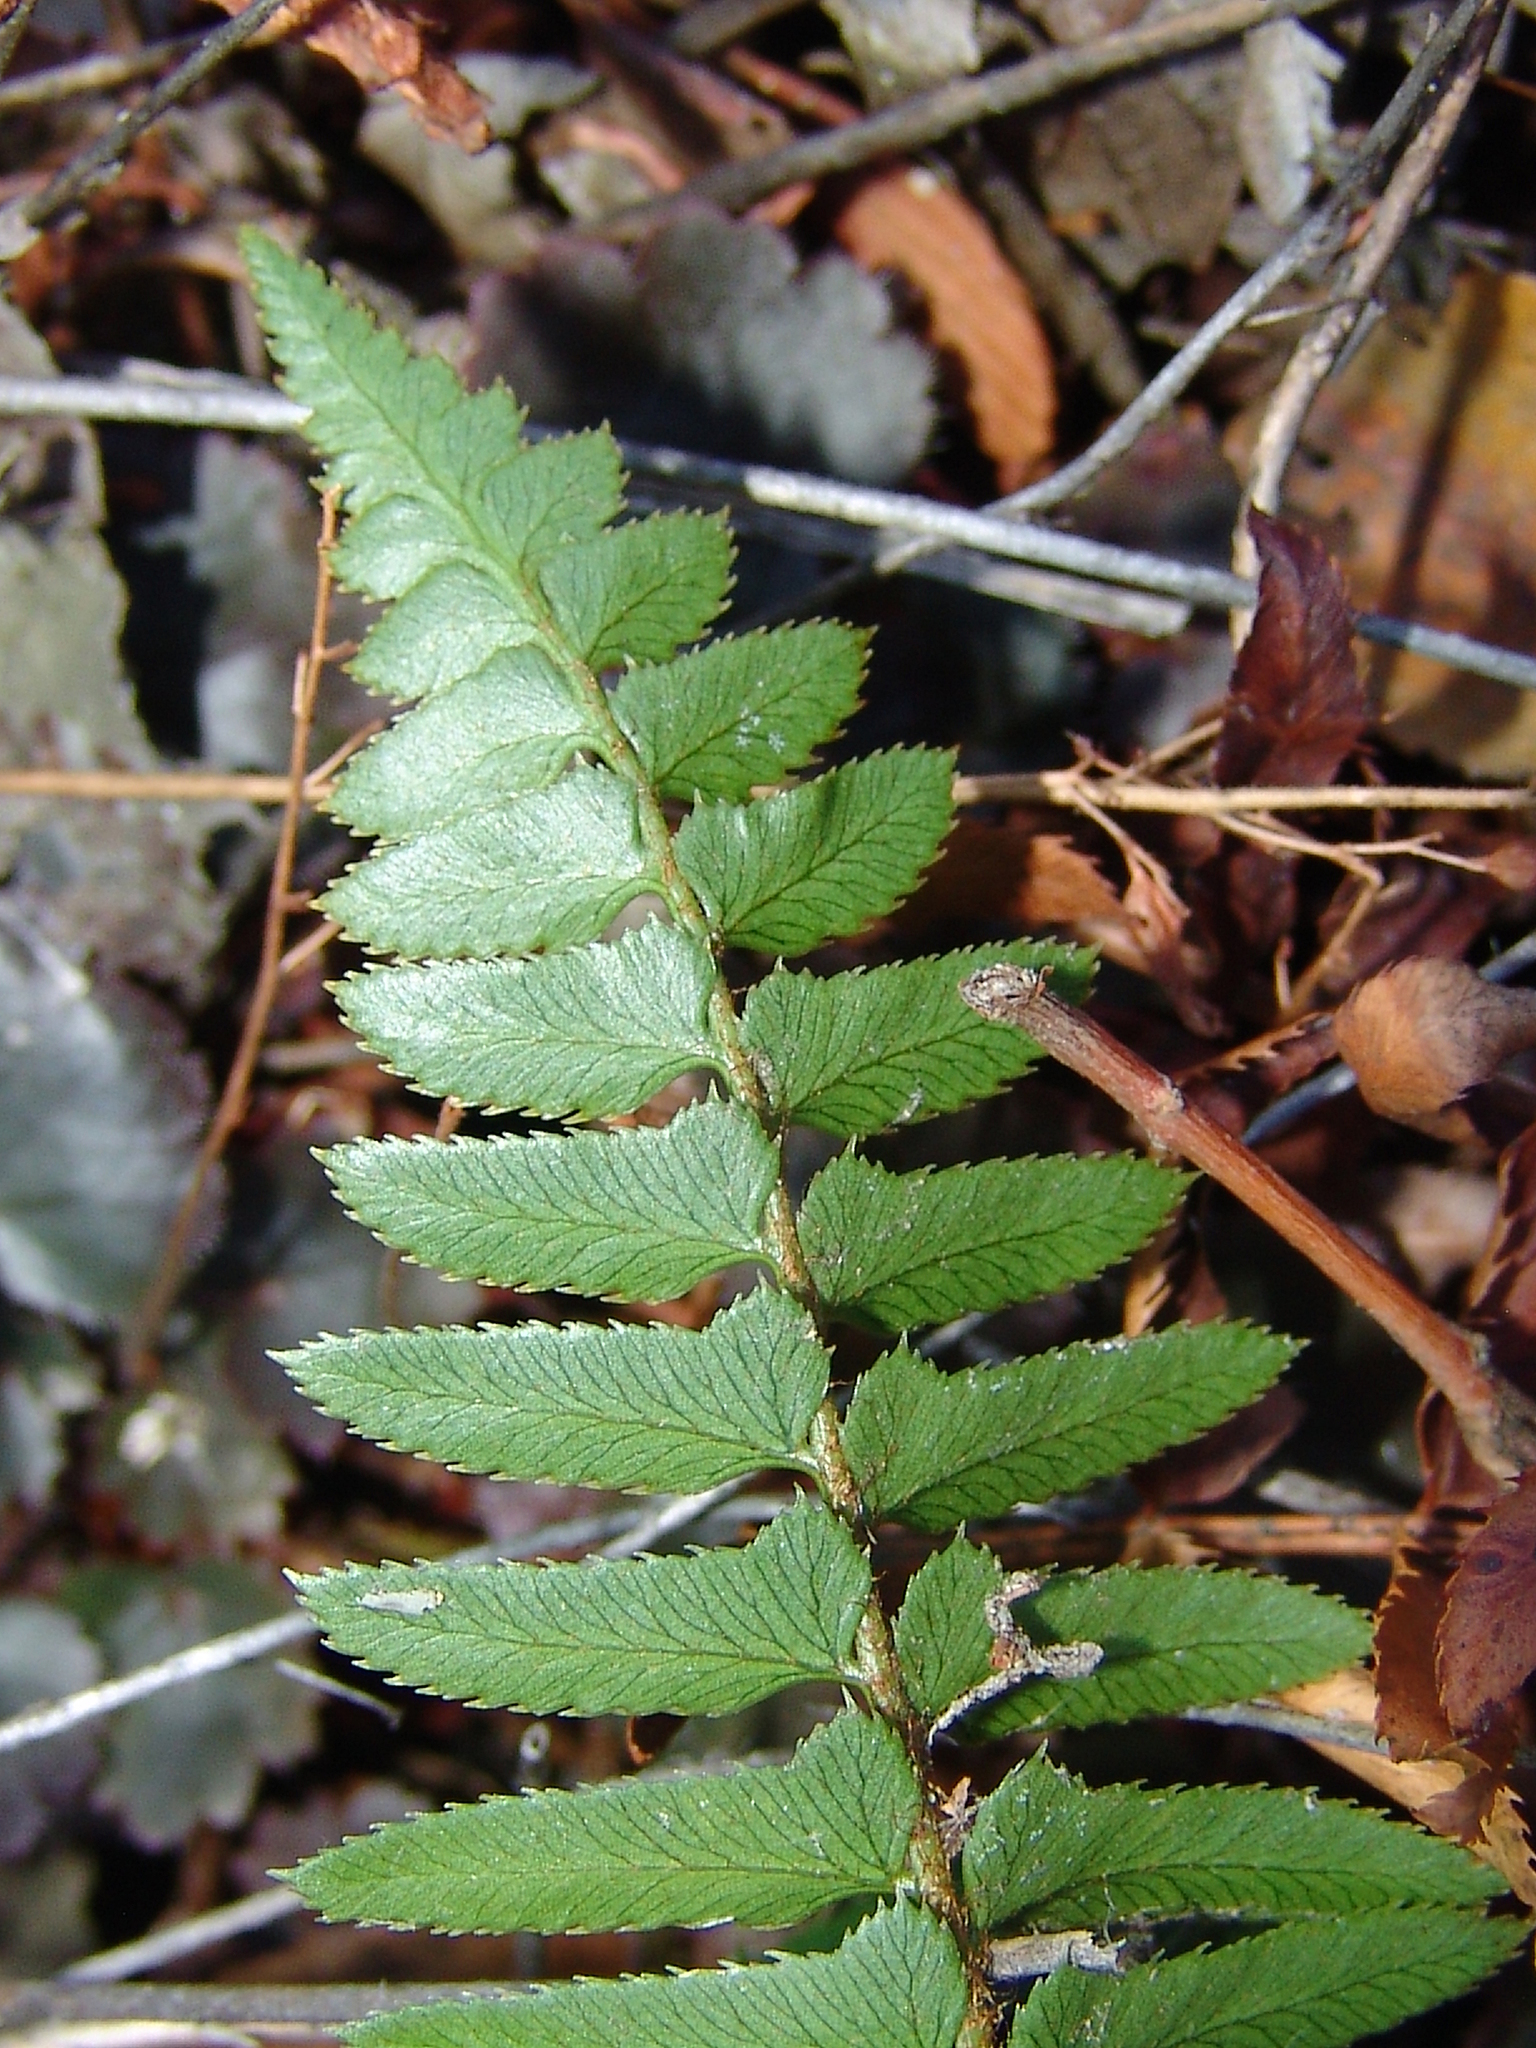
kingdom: Plantae
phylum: Tracheophyta
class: Polypodiopsida
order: Polypodiales
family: Dryopteridaceae
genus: Polystichum
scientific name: Polystichum imbricans
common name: Dwarf western sword fern
